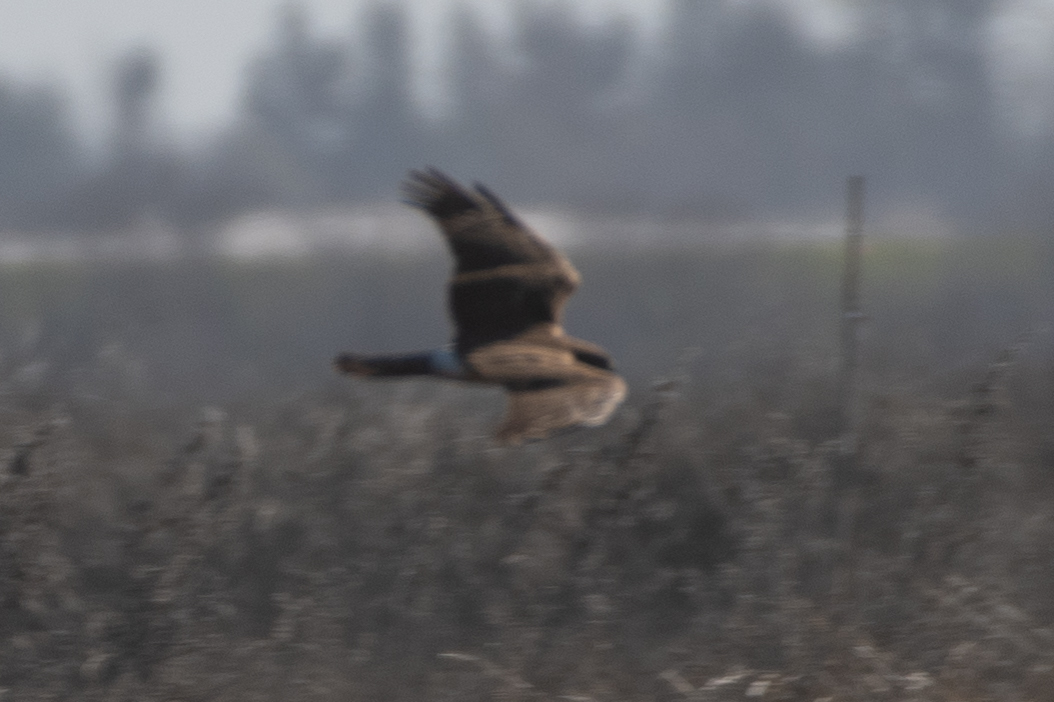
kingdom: Animalia
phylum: Chordata
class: Aves
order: Accipitriformes
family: Accipitridae
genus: Circus
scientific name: Circus cyaneus
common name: Hen harrier
